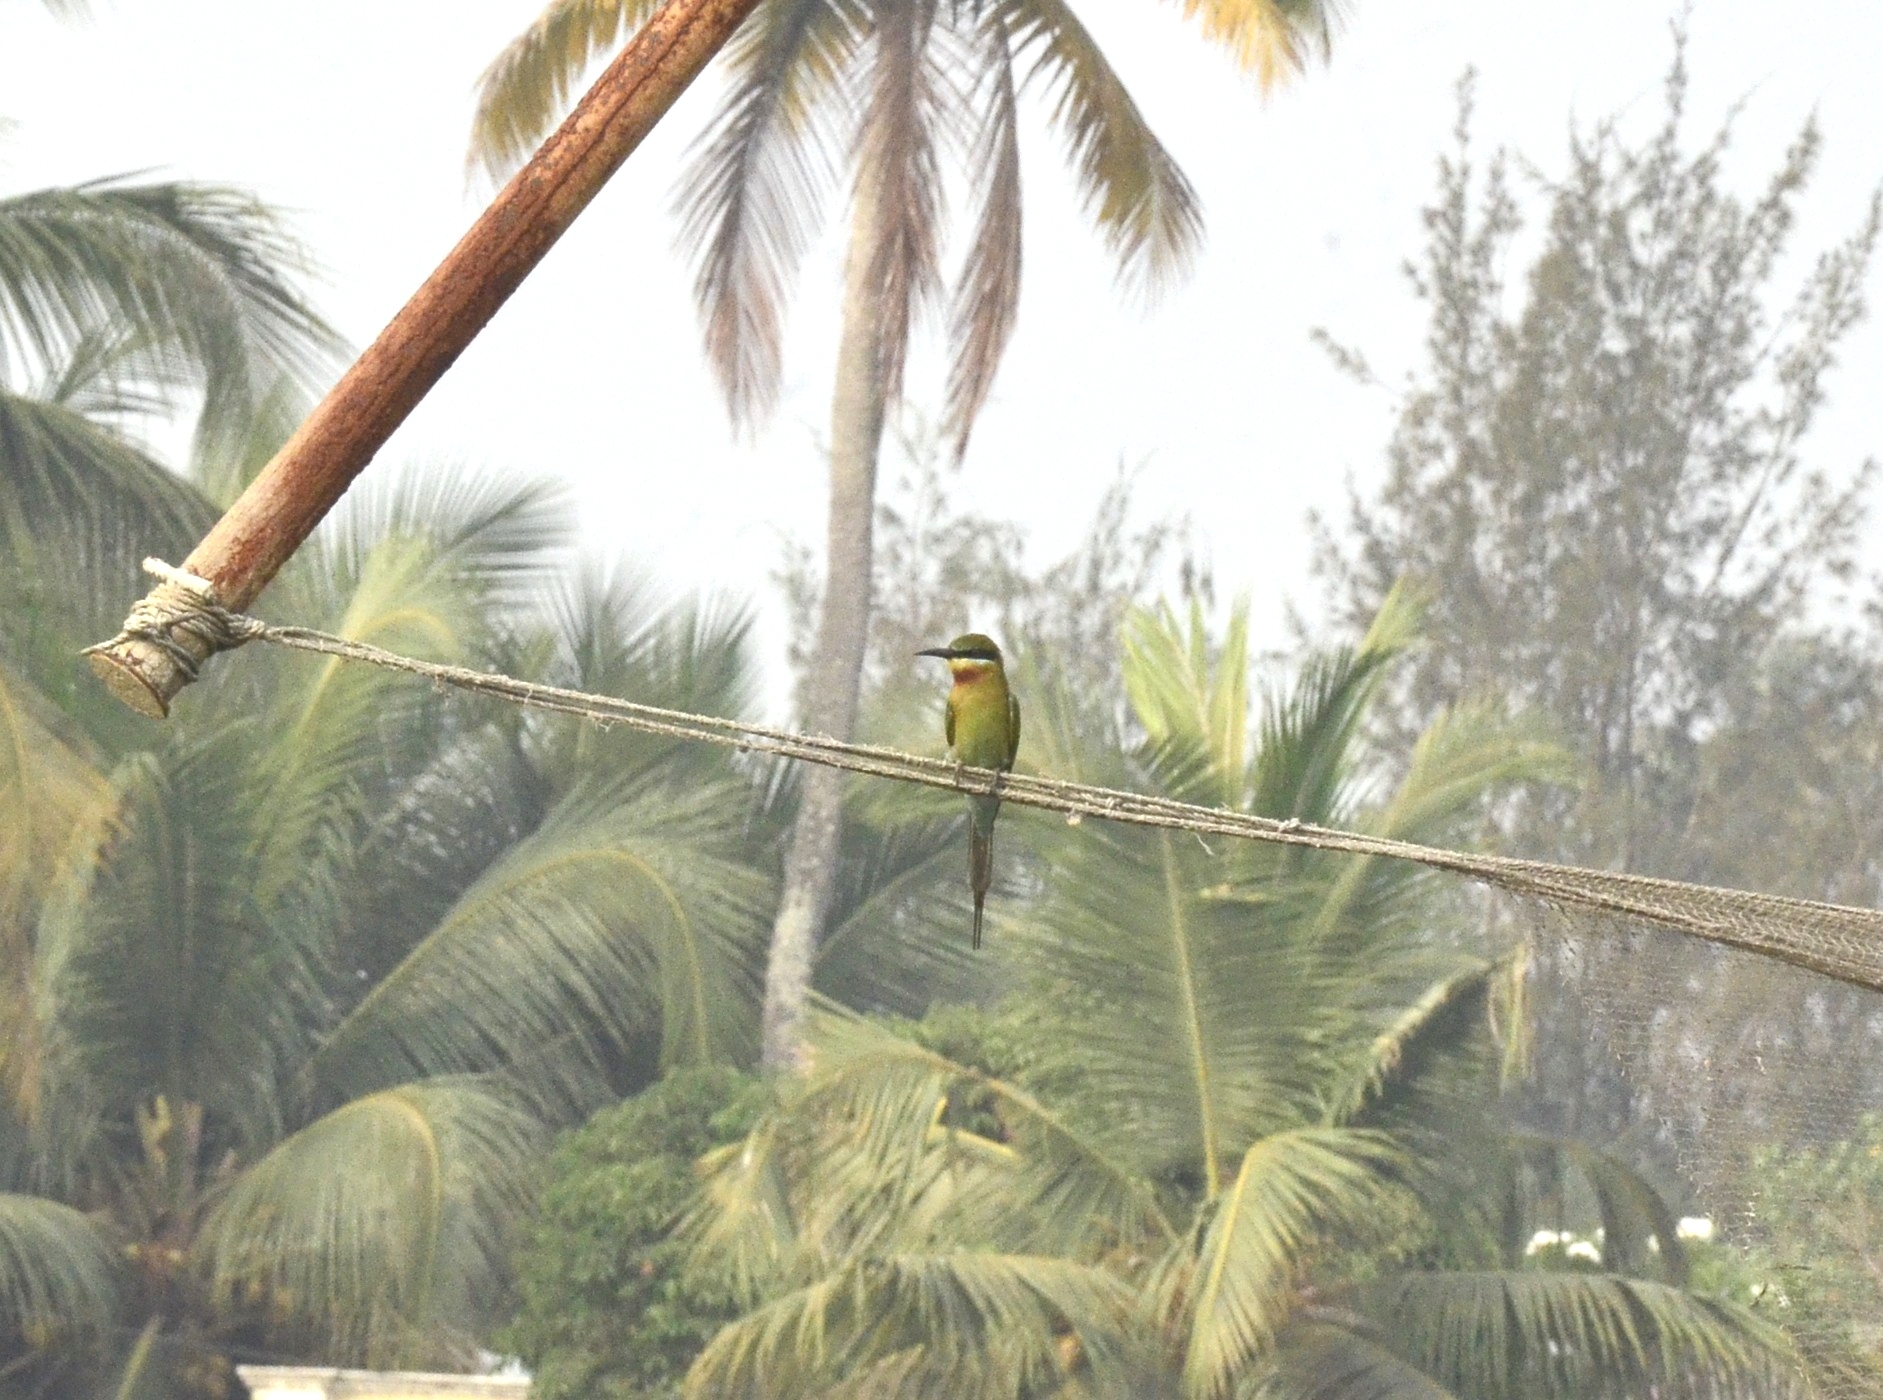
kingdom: Animalia
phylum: Chordata
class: Aves
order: Coraciiformes
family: Meropidae
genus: Merops
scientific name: Merops philippinus
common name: Blue-tailed bee-eater
